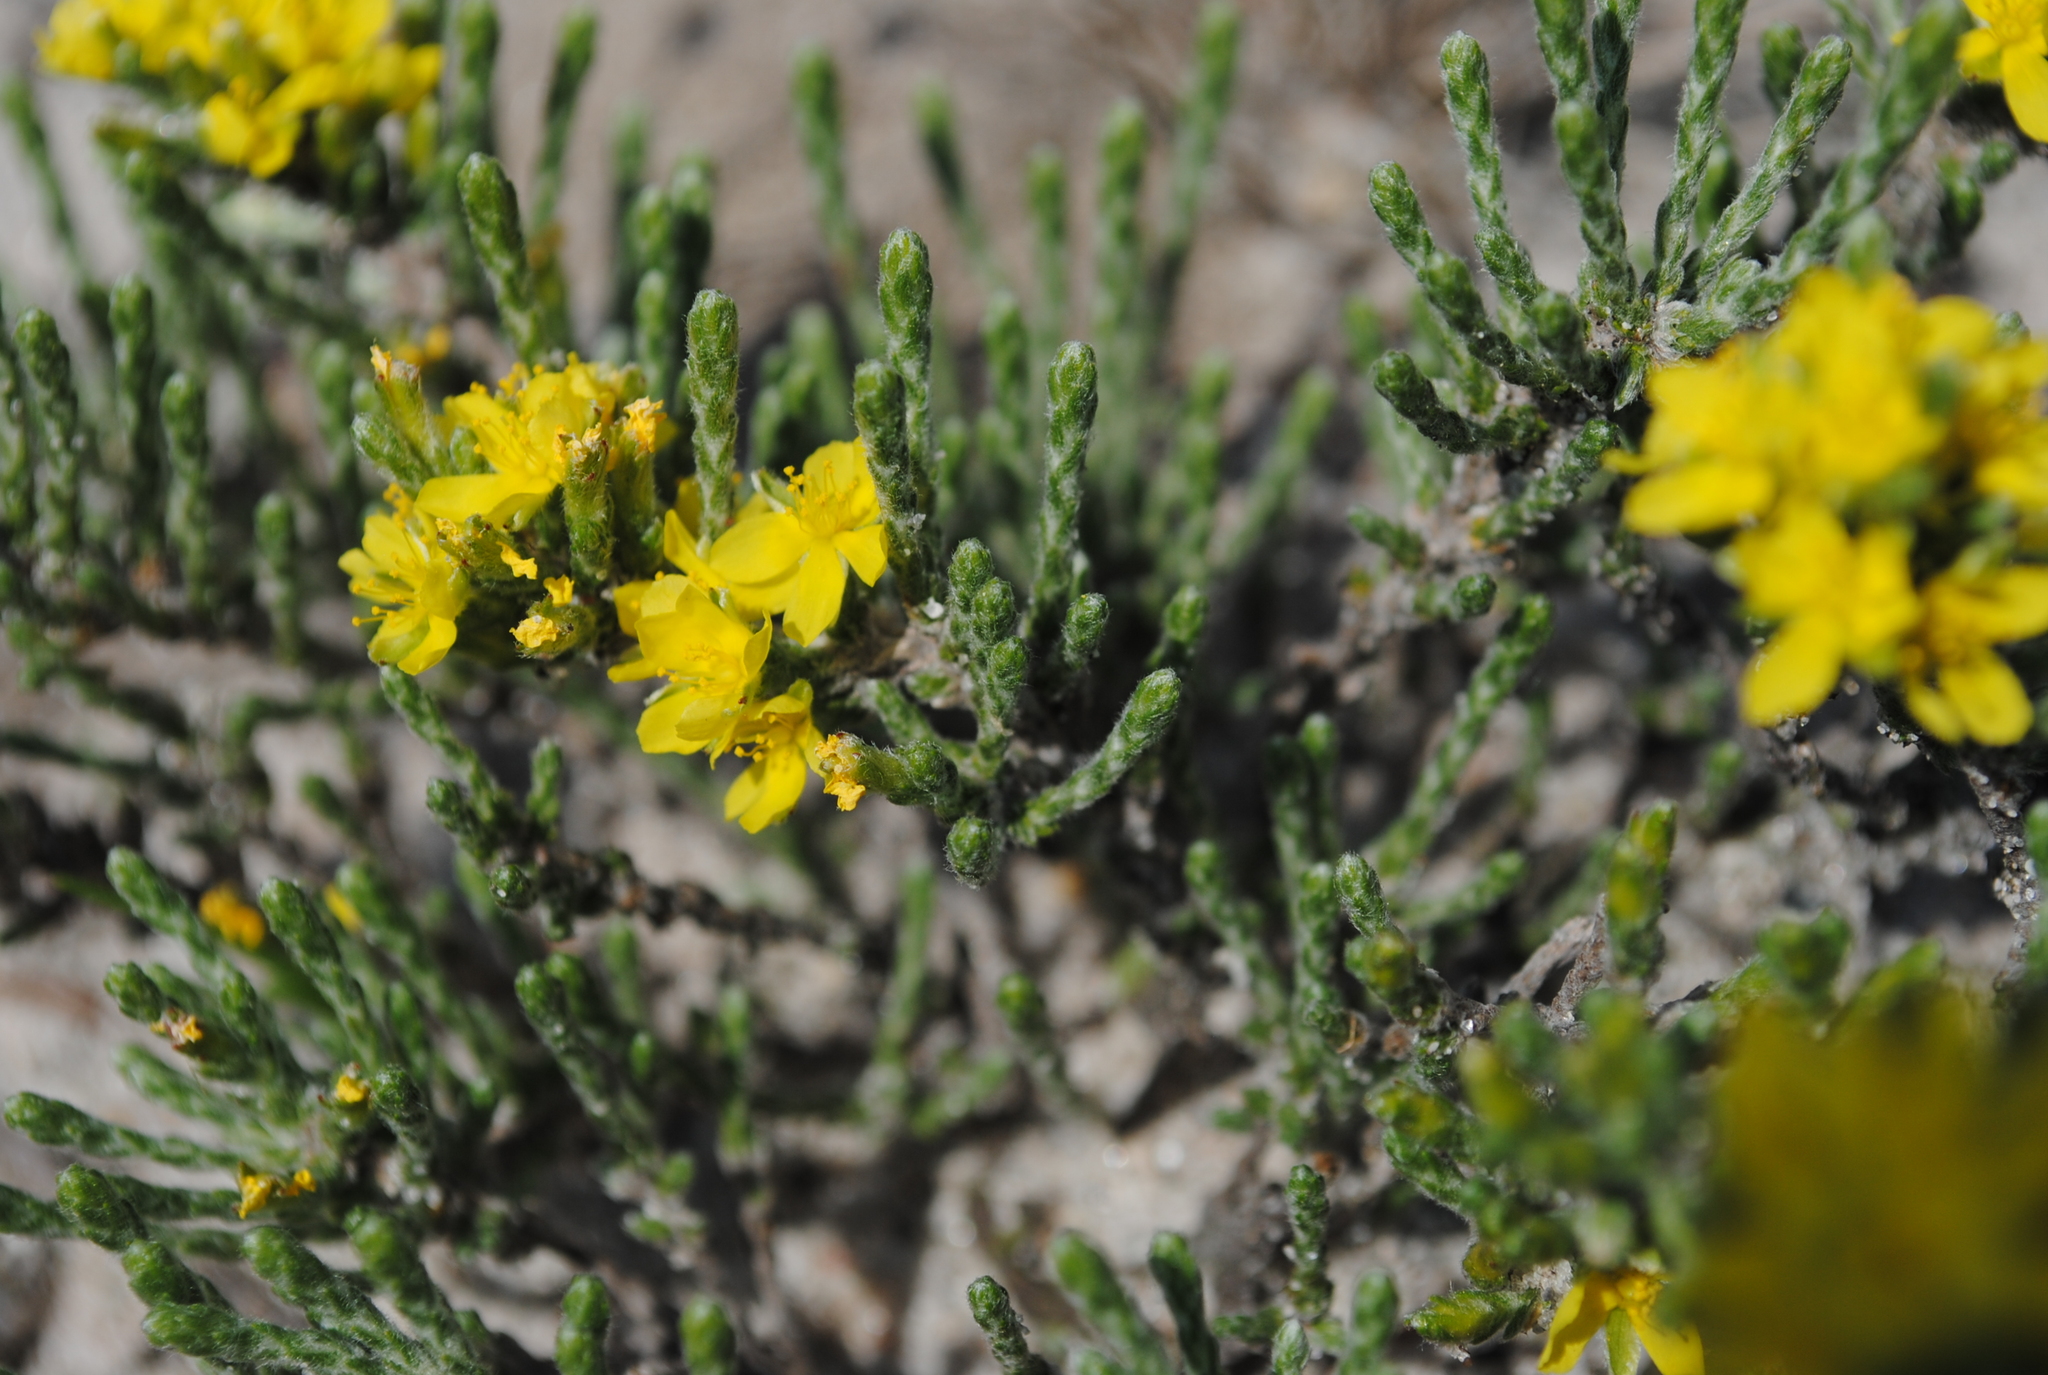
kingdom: Plantae
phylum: Tracheophyta
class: Magnoliopsida
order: Malvales
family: Cistaceae
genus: Hudsonia
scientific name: Hudsonia tomentosa
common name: Beach-heath
